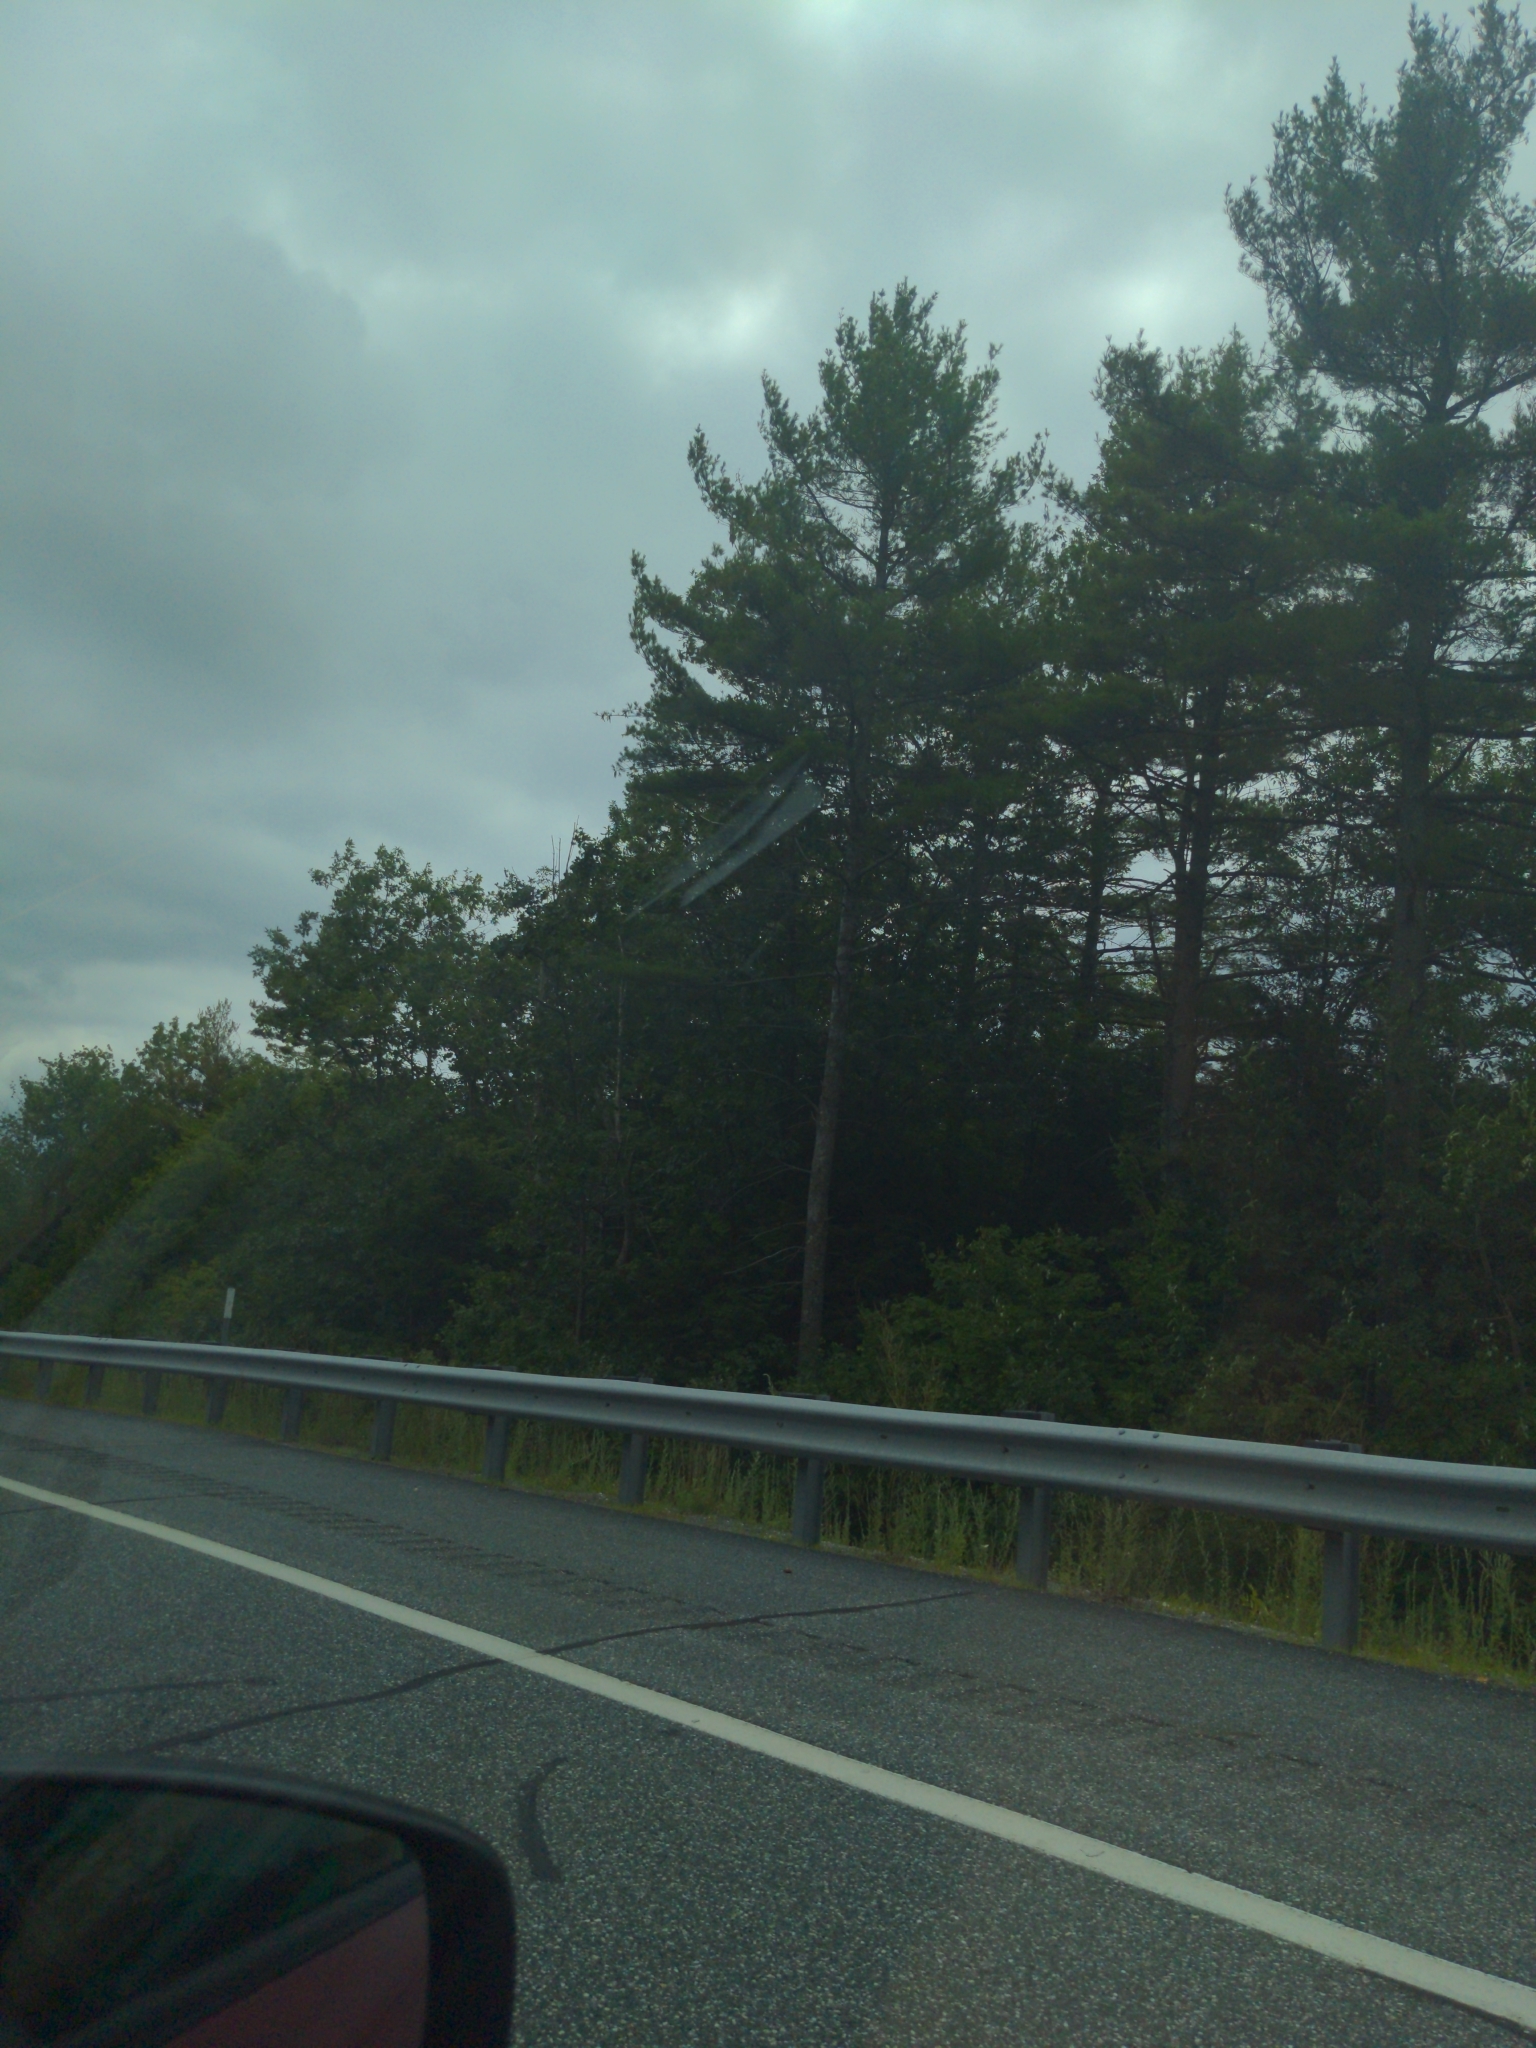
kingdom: Plantae
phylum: Tracheophyta
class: Pinopsida
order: Pinales
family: Pinaceae
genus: Pinus
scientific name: Pinus strobus
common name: Weymouth pine
